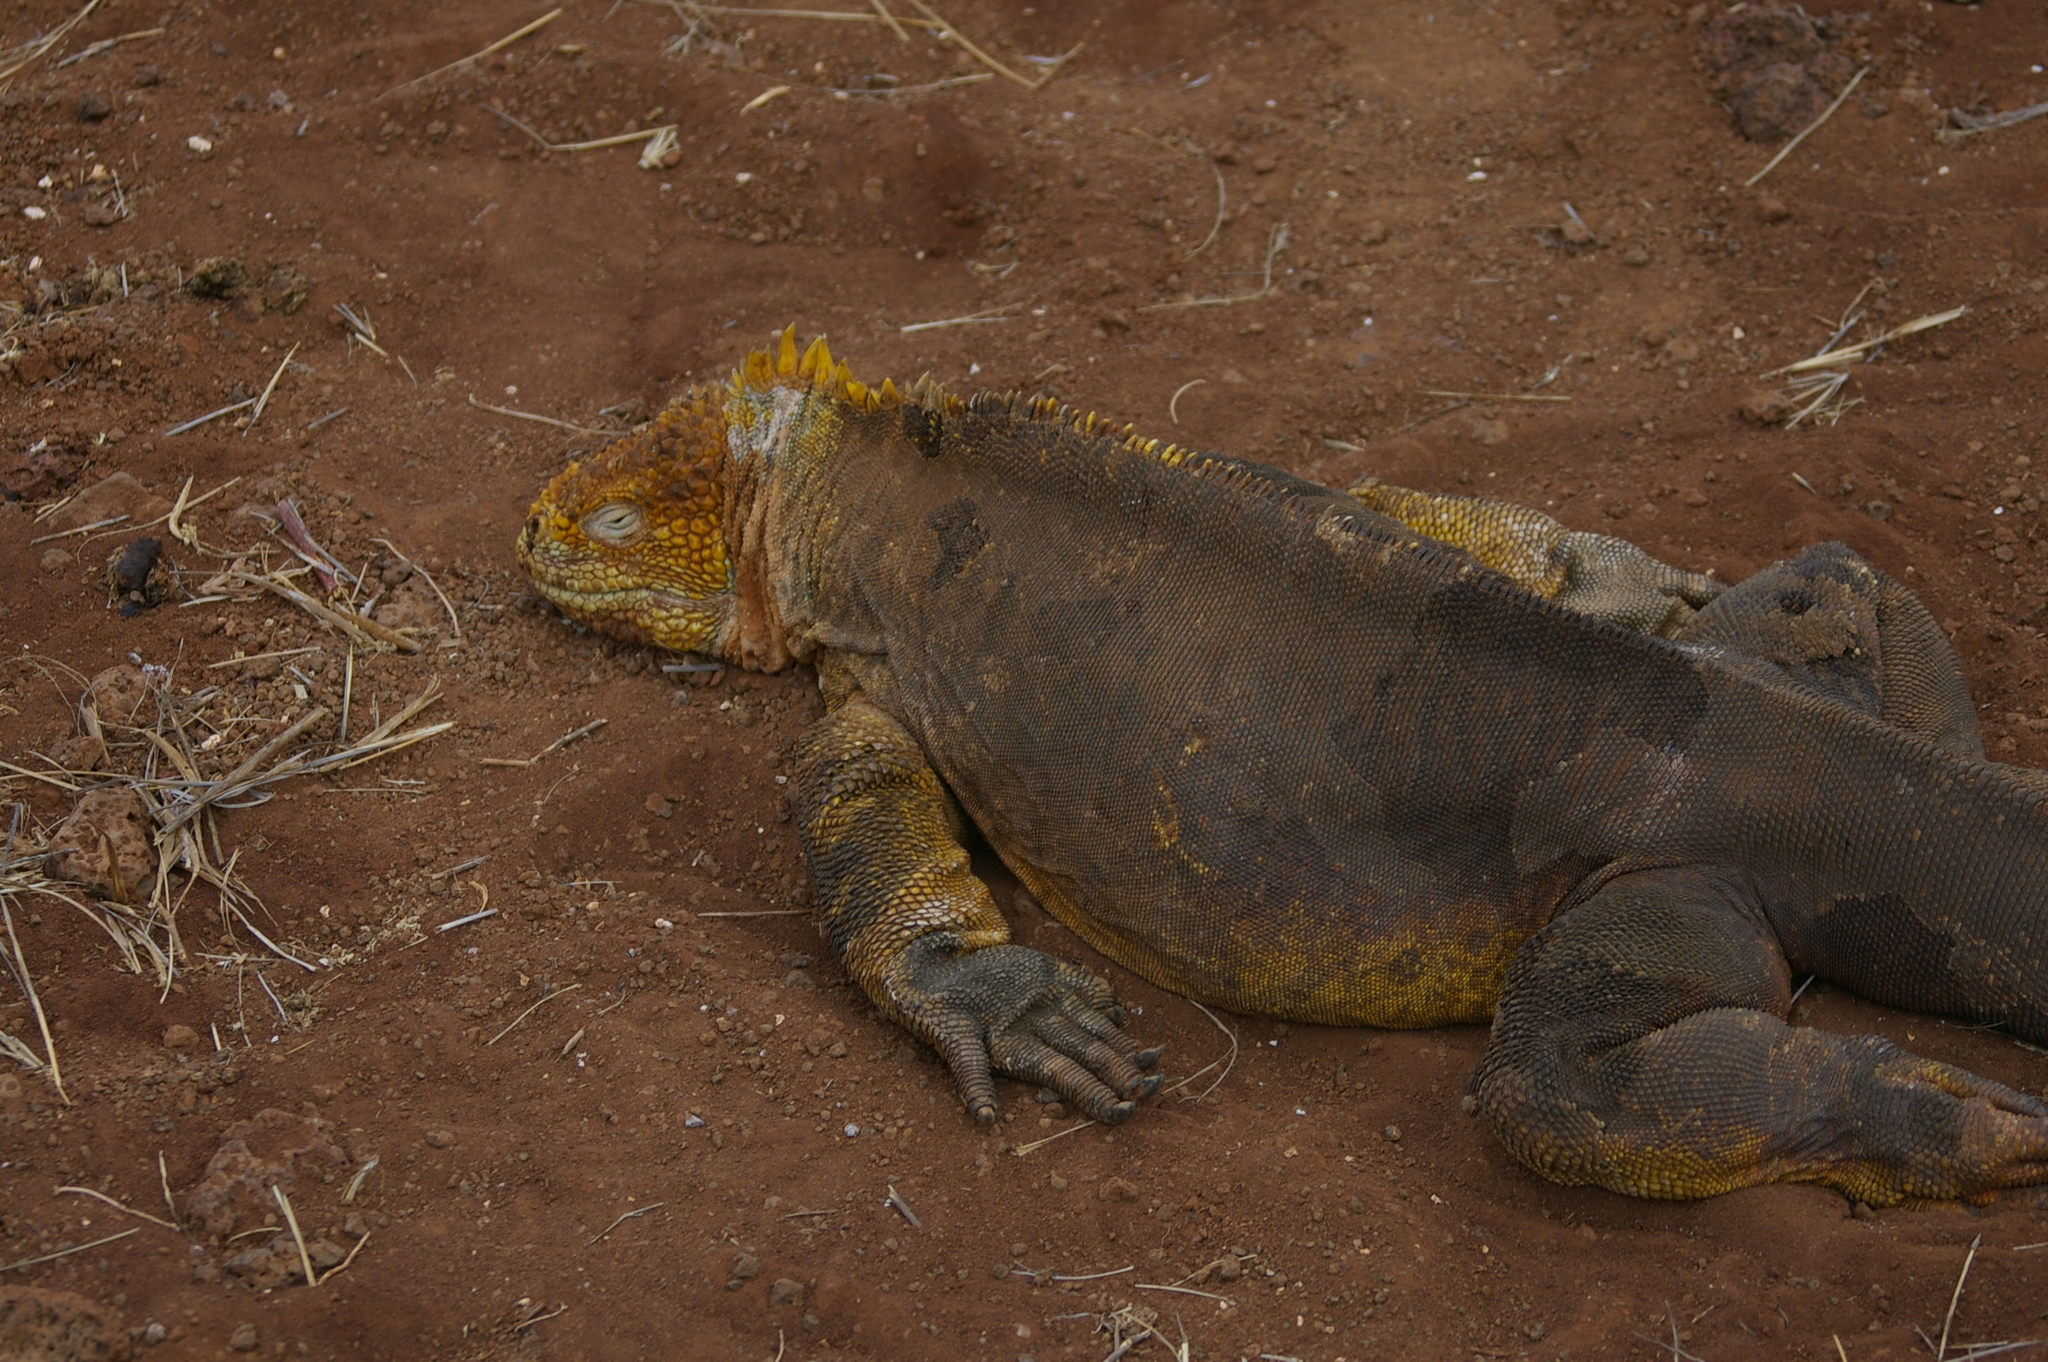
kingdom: Animalia
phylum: Chordata
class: Squamata
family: Iguanidae
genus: Conolophus
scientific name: Conolophus subcristatus
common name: Galapagos land iguana
